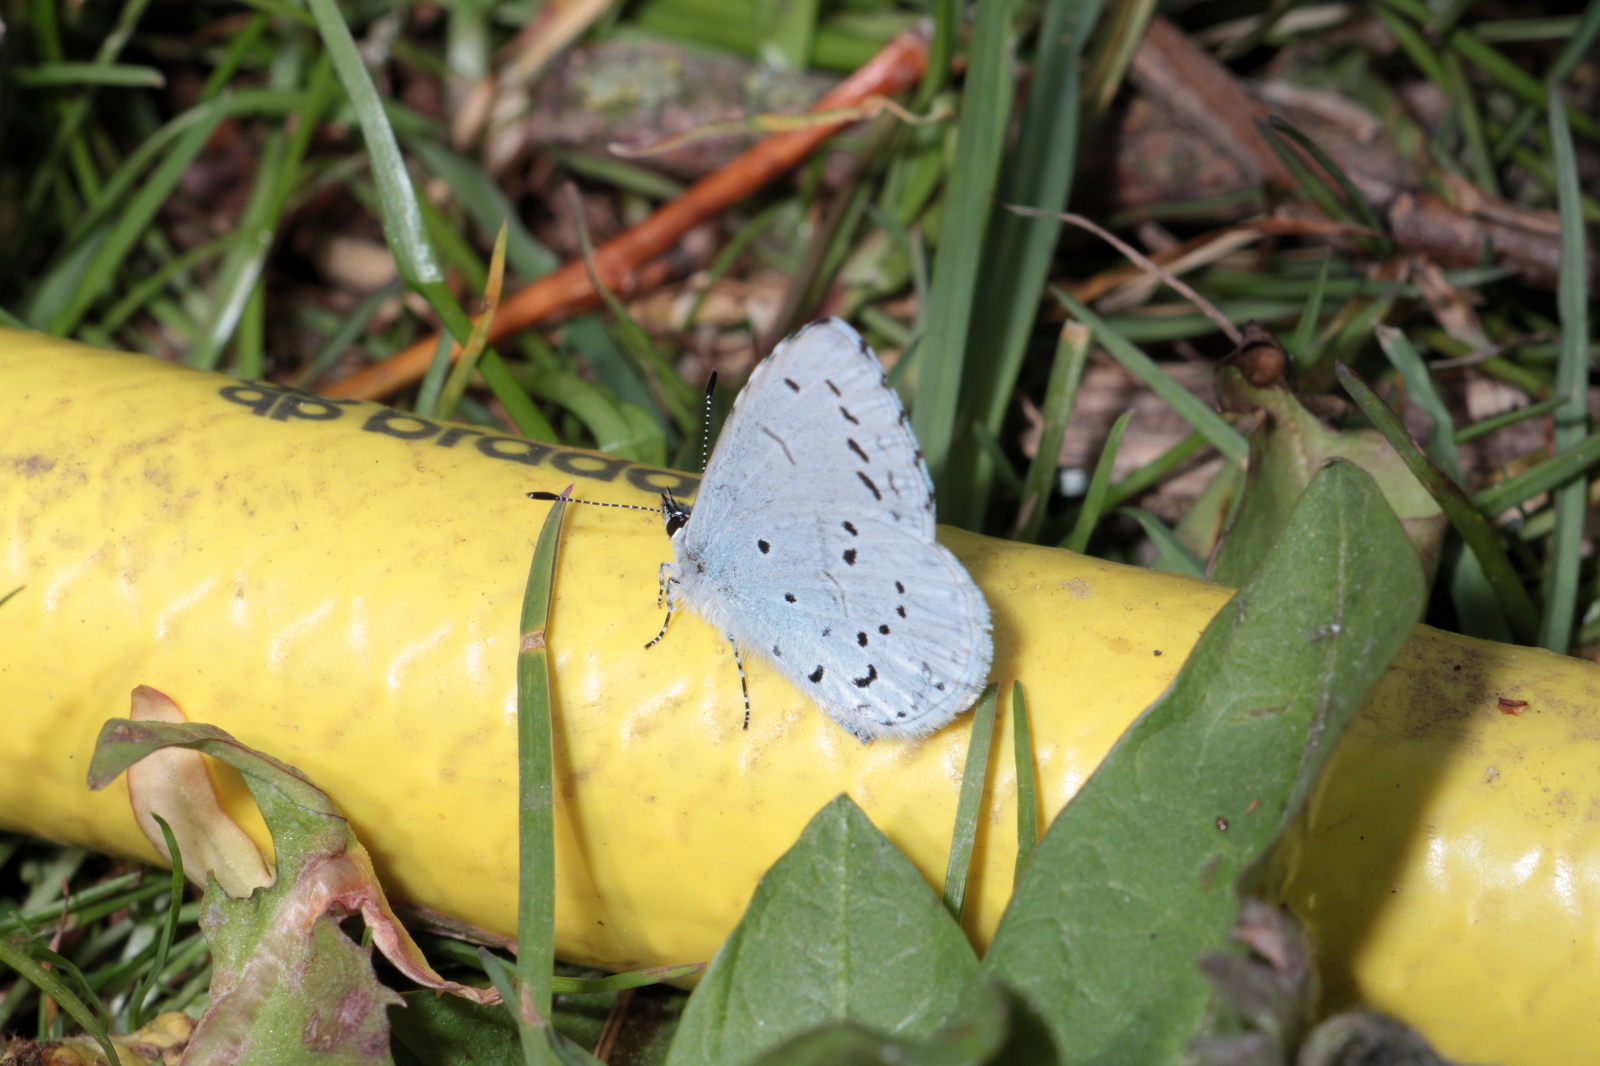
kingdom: Animalia
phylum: Arthropoda
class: Insecta
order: Lepidoptera
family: Lycaenidae
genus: Celastrina
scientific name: Celastrina argiolus
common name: Holly blue
